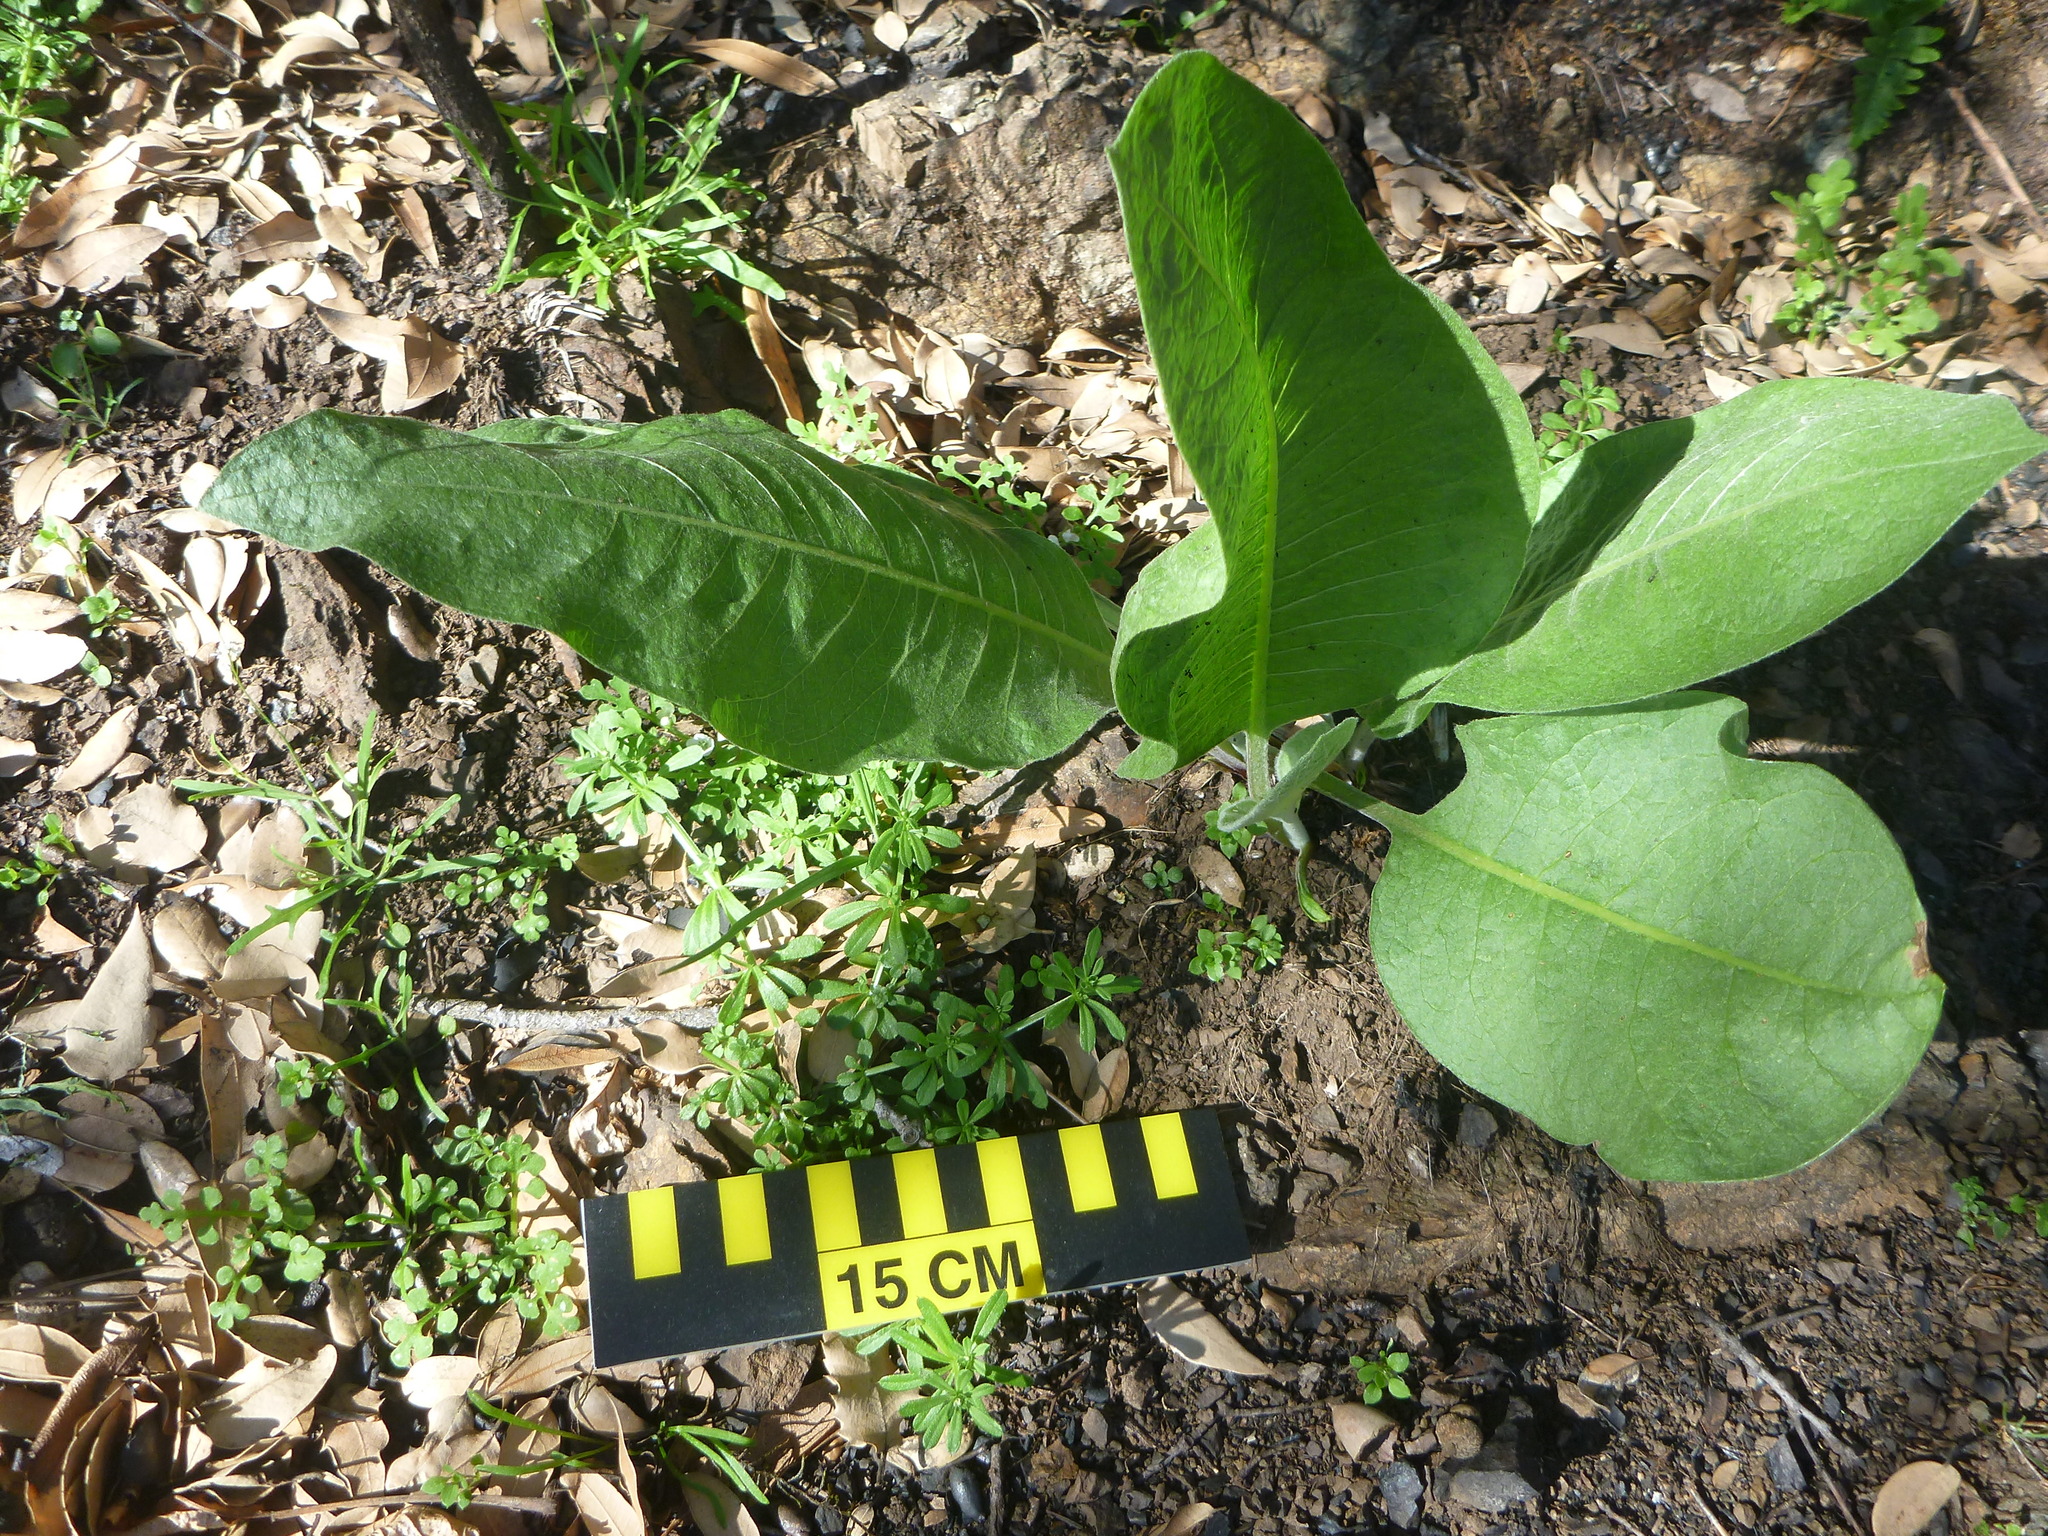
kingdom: Plantae
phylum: Tracheophyta
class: Magnoliopsida
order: Boraginales
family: Boraginaceae
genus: Adelinia
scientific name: Adelinia grande
